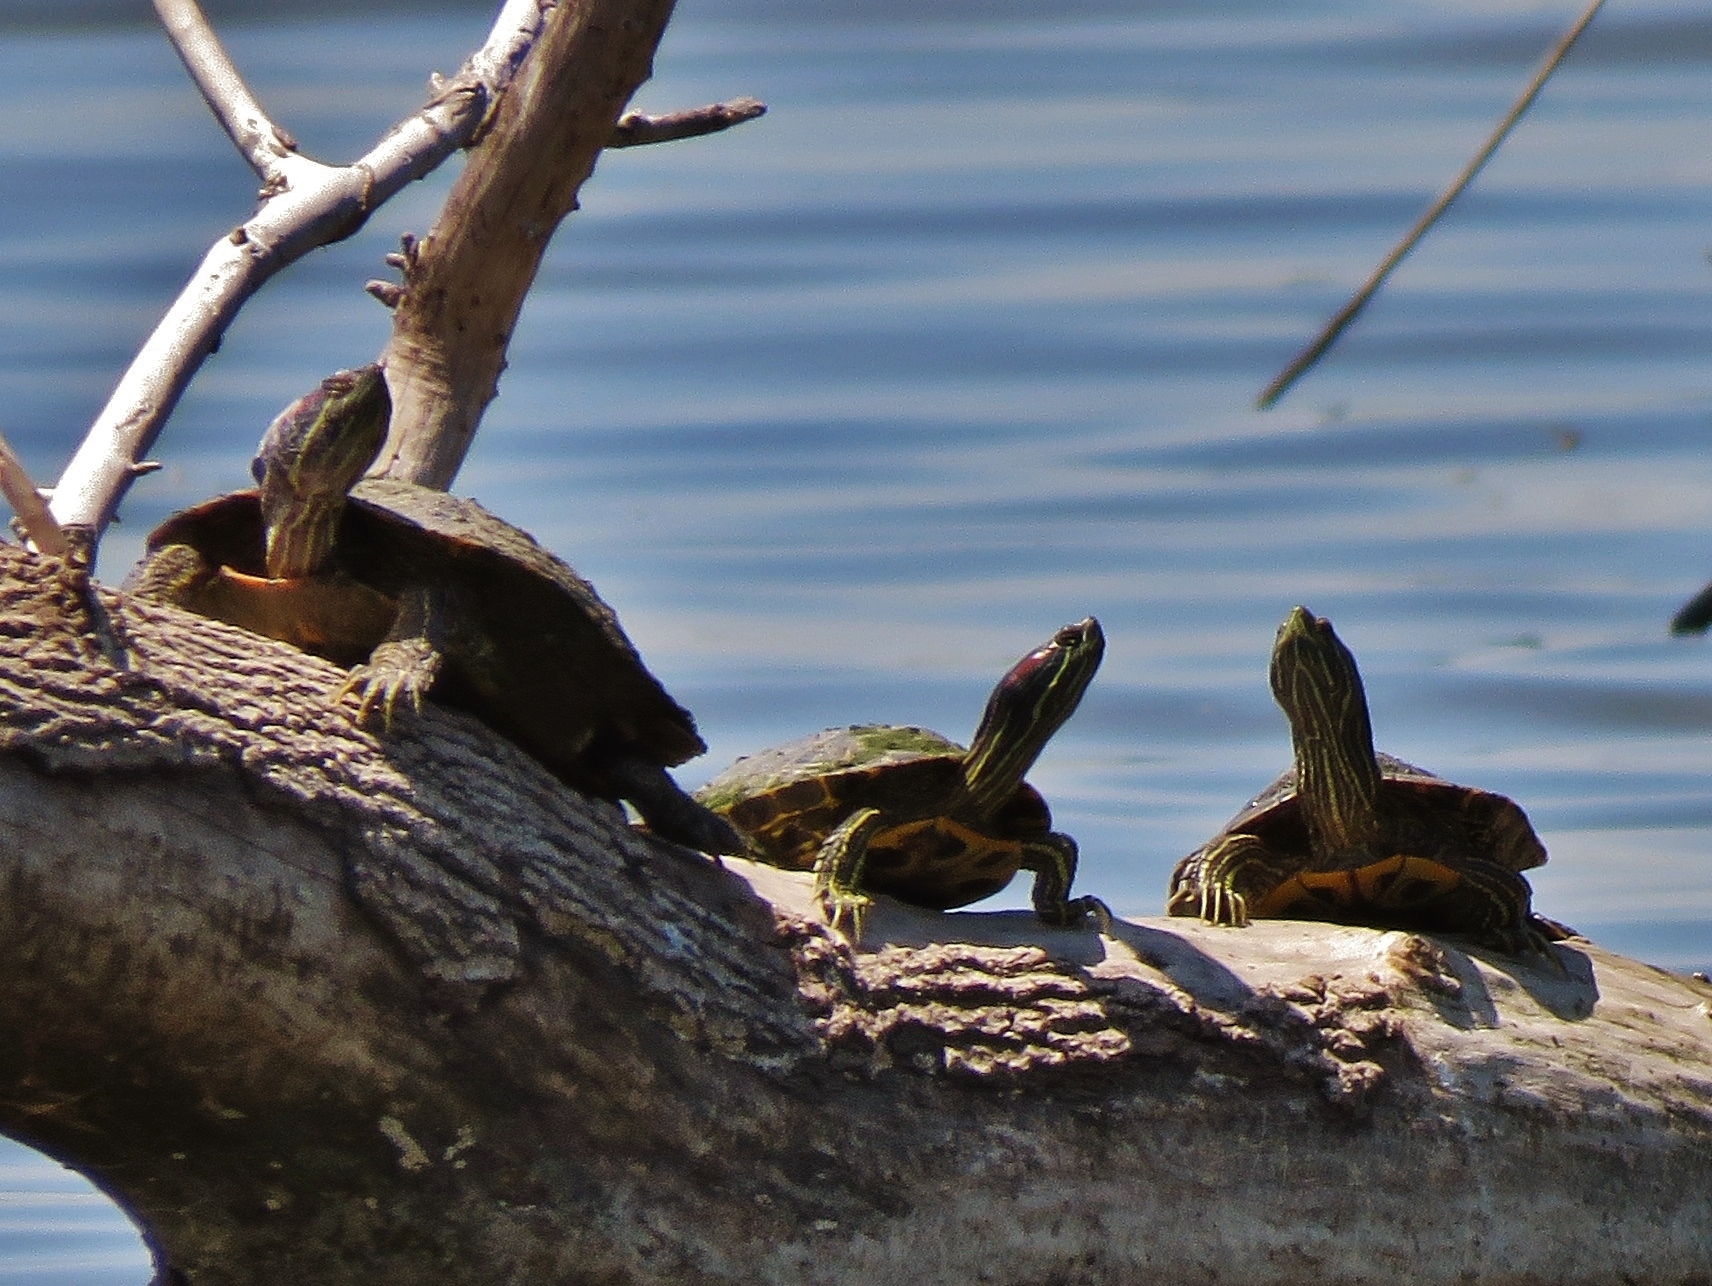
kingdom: Animalia
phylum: Chordata
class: Testudines
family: Emydidae
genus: Trachemys
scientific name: Trachemys scripta
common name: Slider
